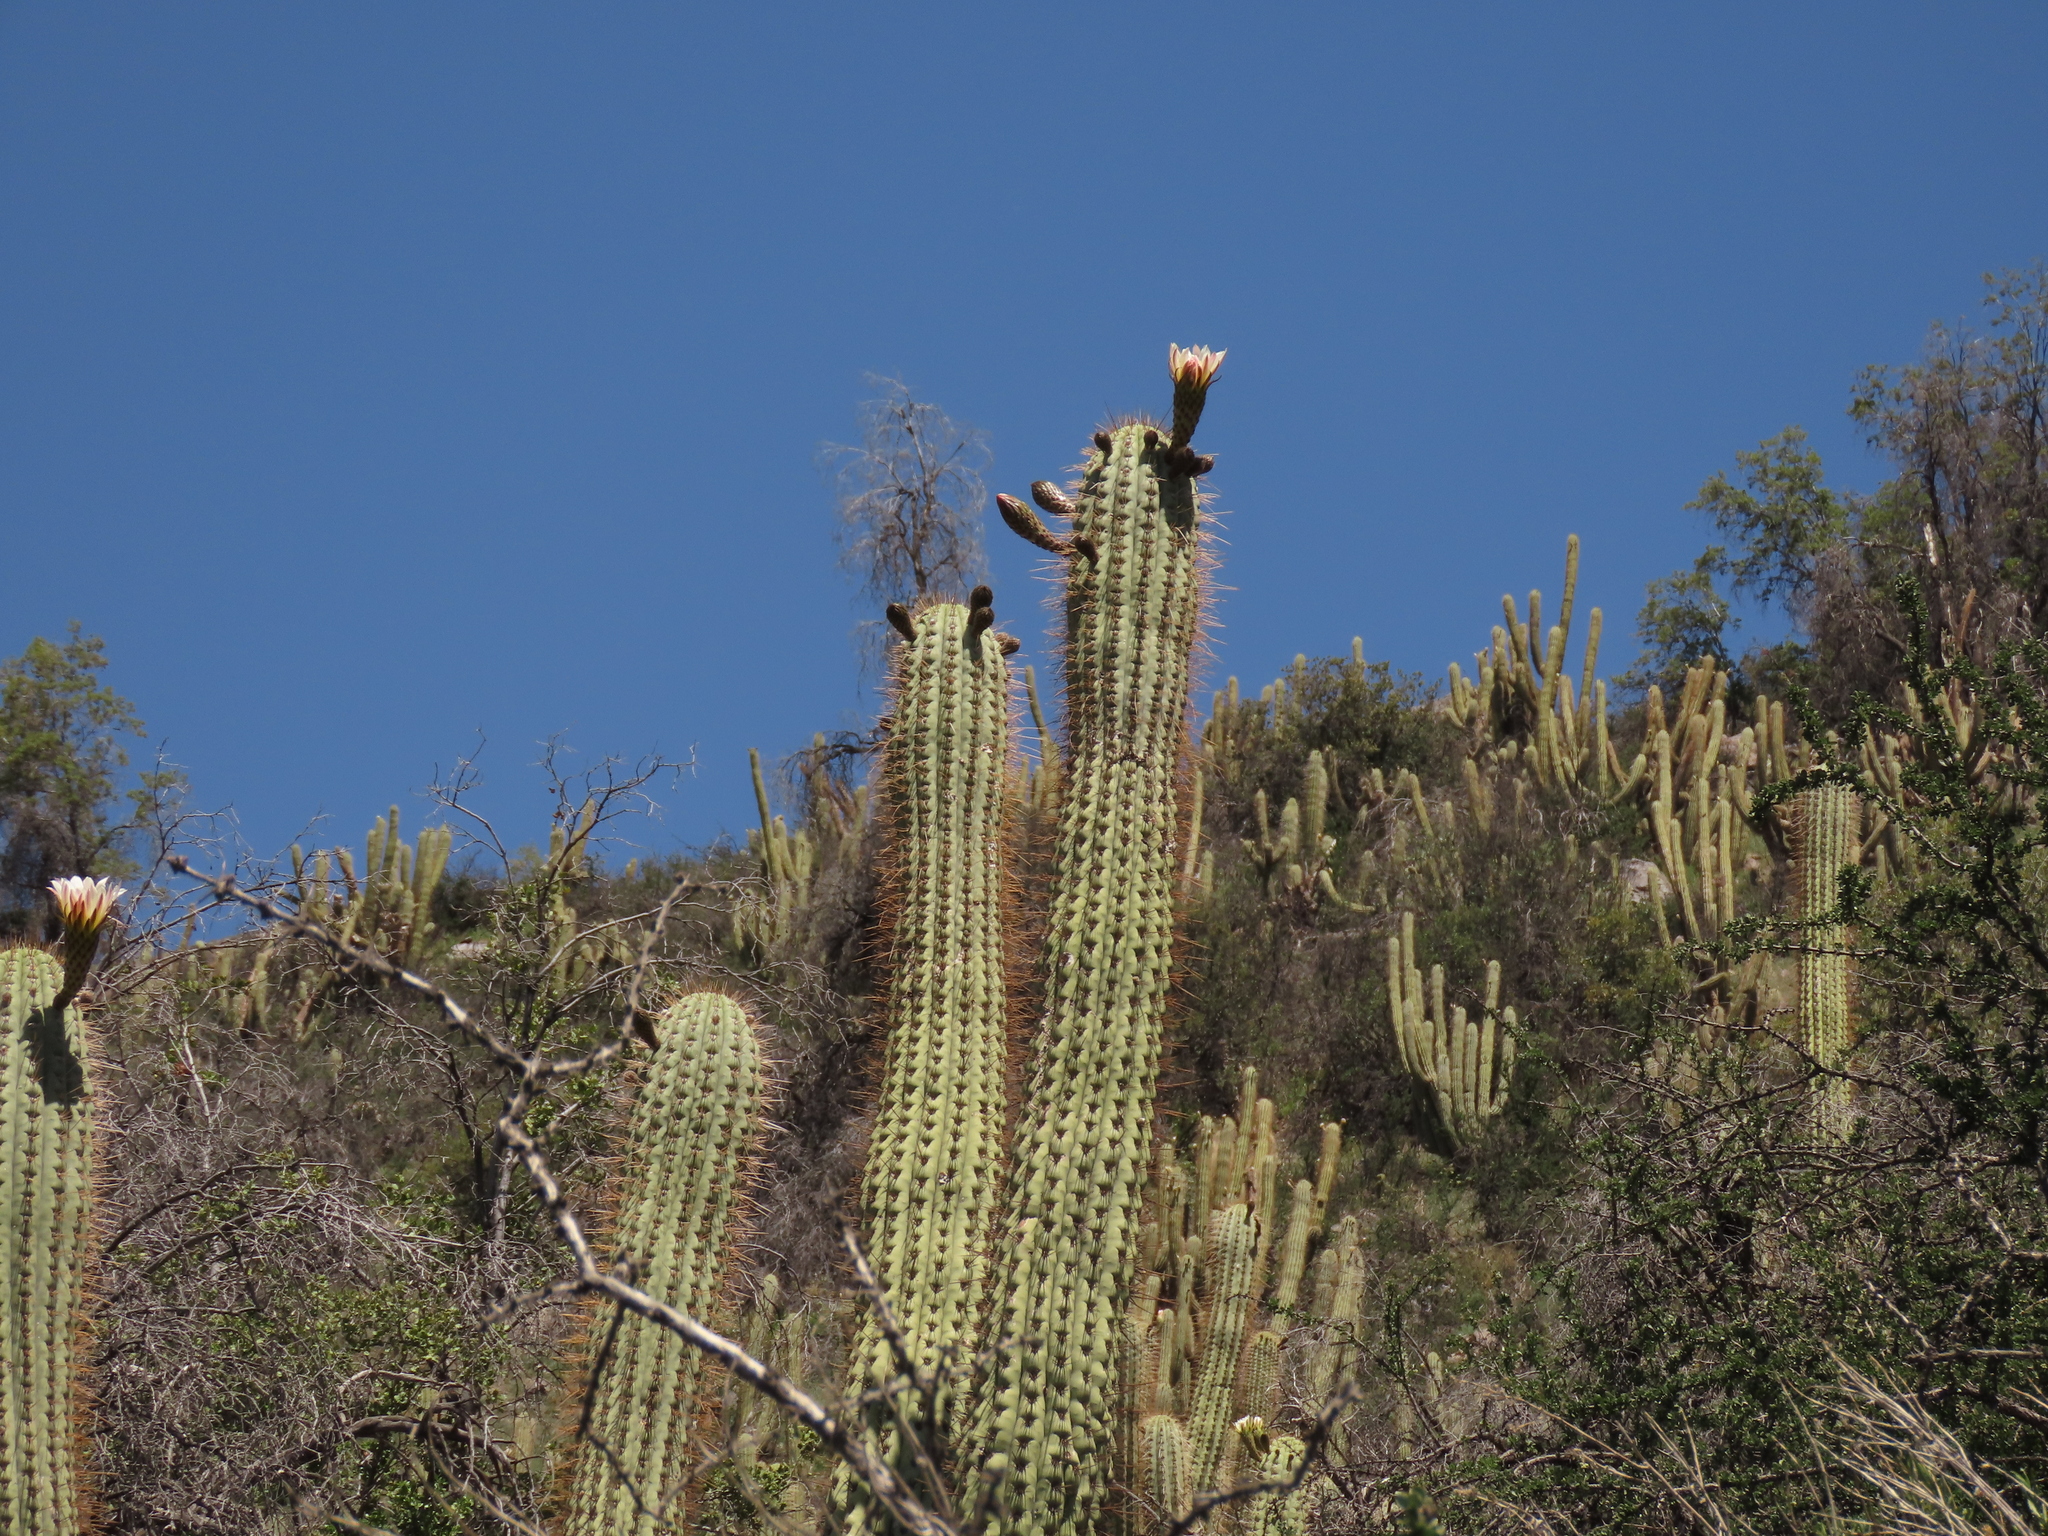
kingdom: Plantae
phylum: Tracheophyta
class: Magnoliopsida
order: Caryophyllales
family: Cactaceae
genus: Leucostele
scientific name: Leucostele chiloensis
